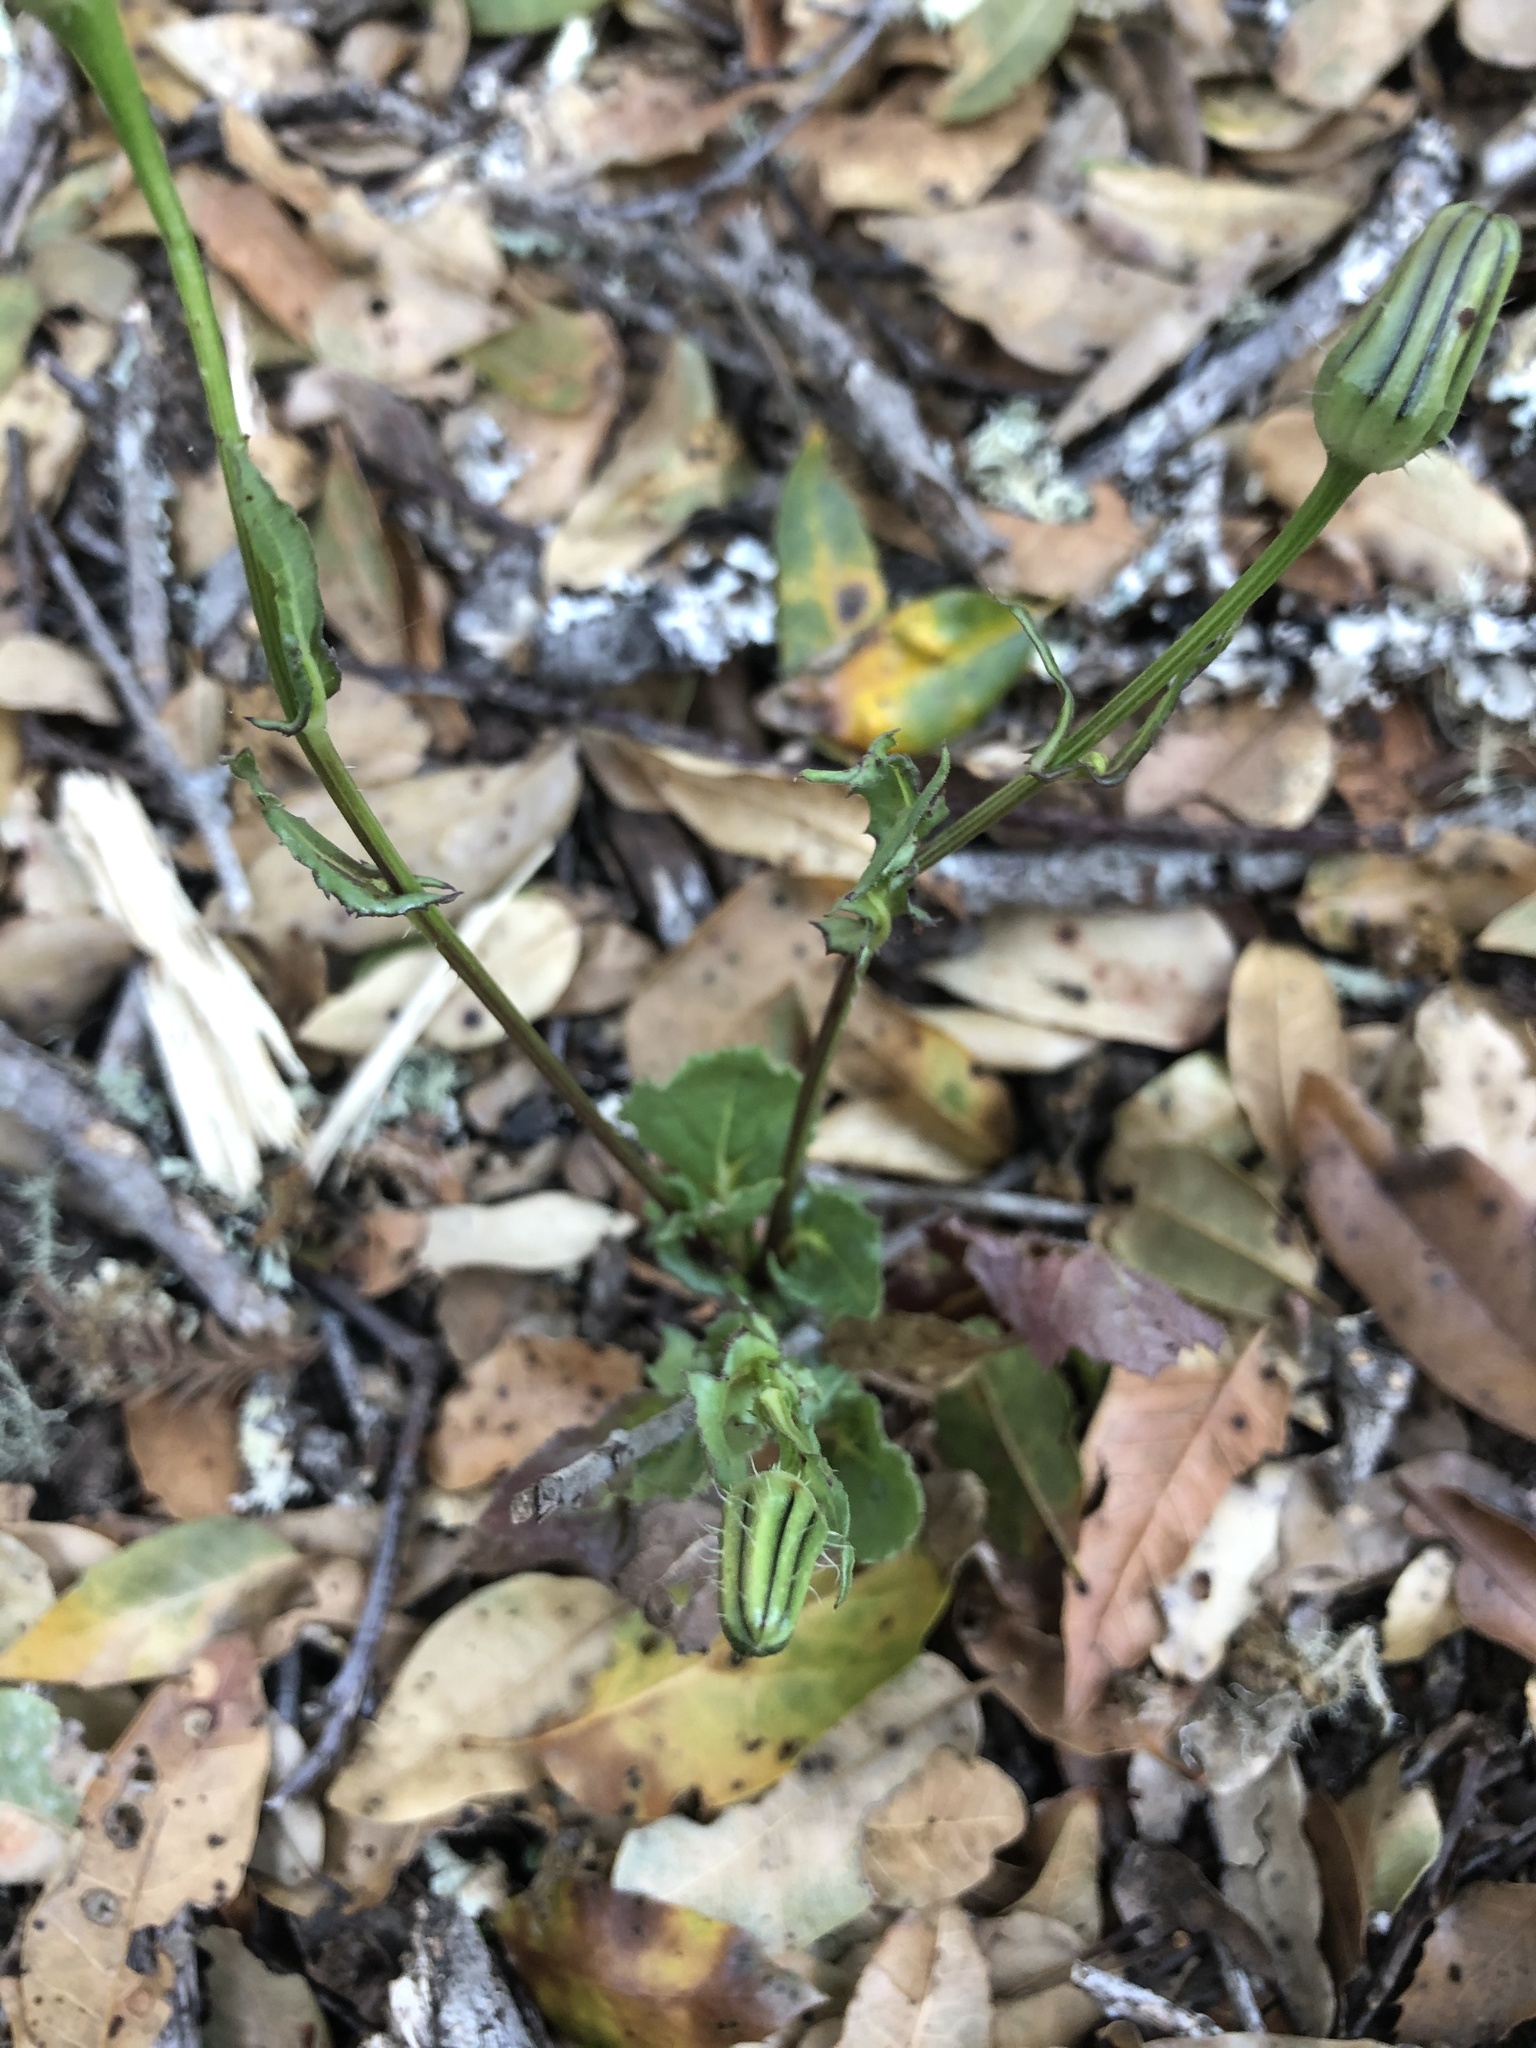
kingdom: Plantae
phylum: Tracheophyta
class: Magnoliopsida
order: Asterales
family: Asteraceae
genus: Urospermum
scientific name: Urospermum picroides
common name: False hawkbit
